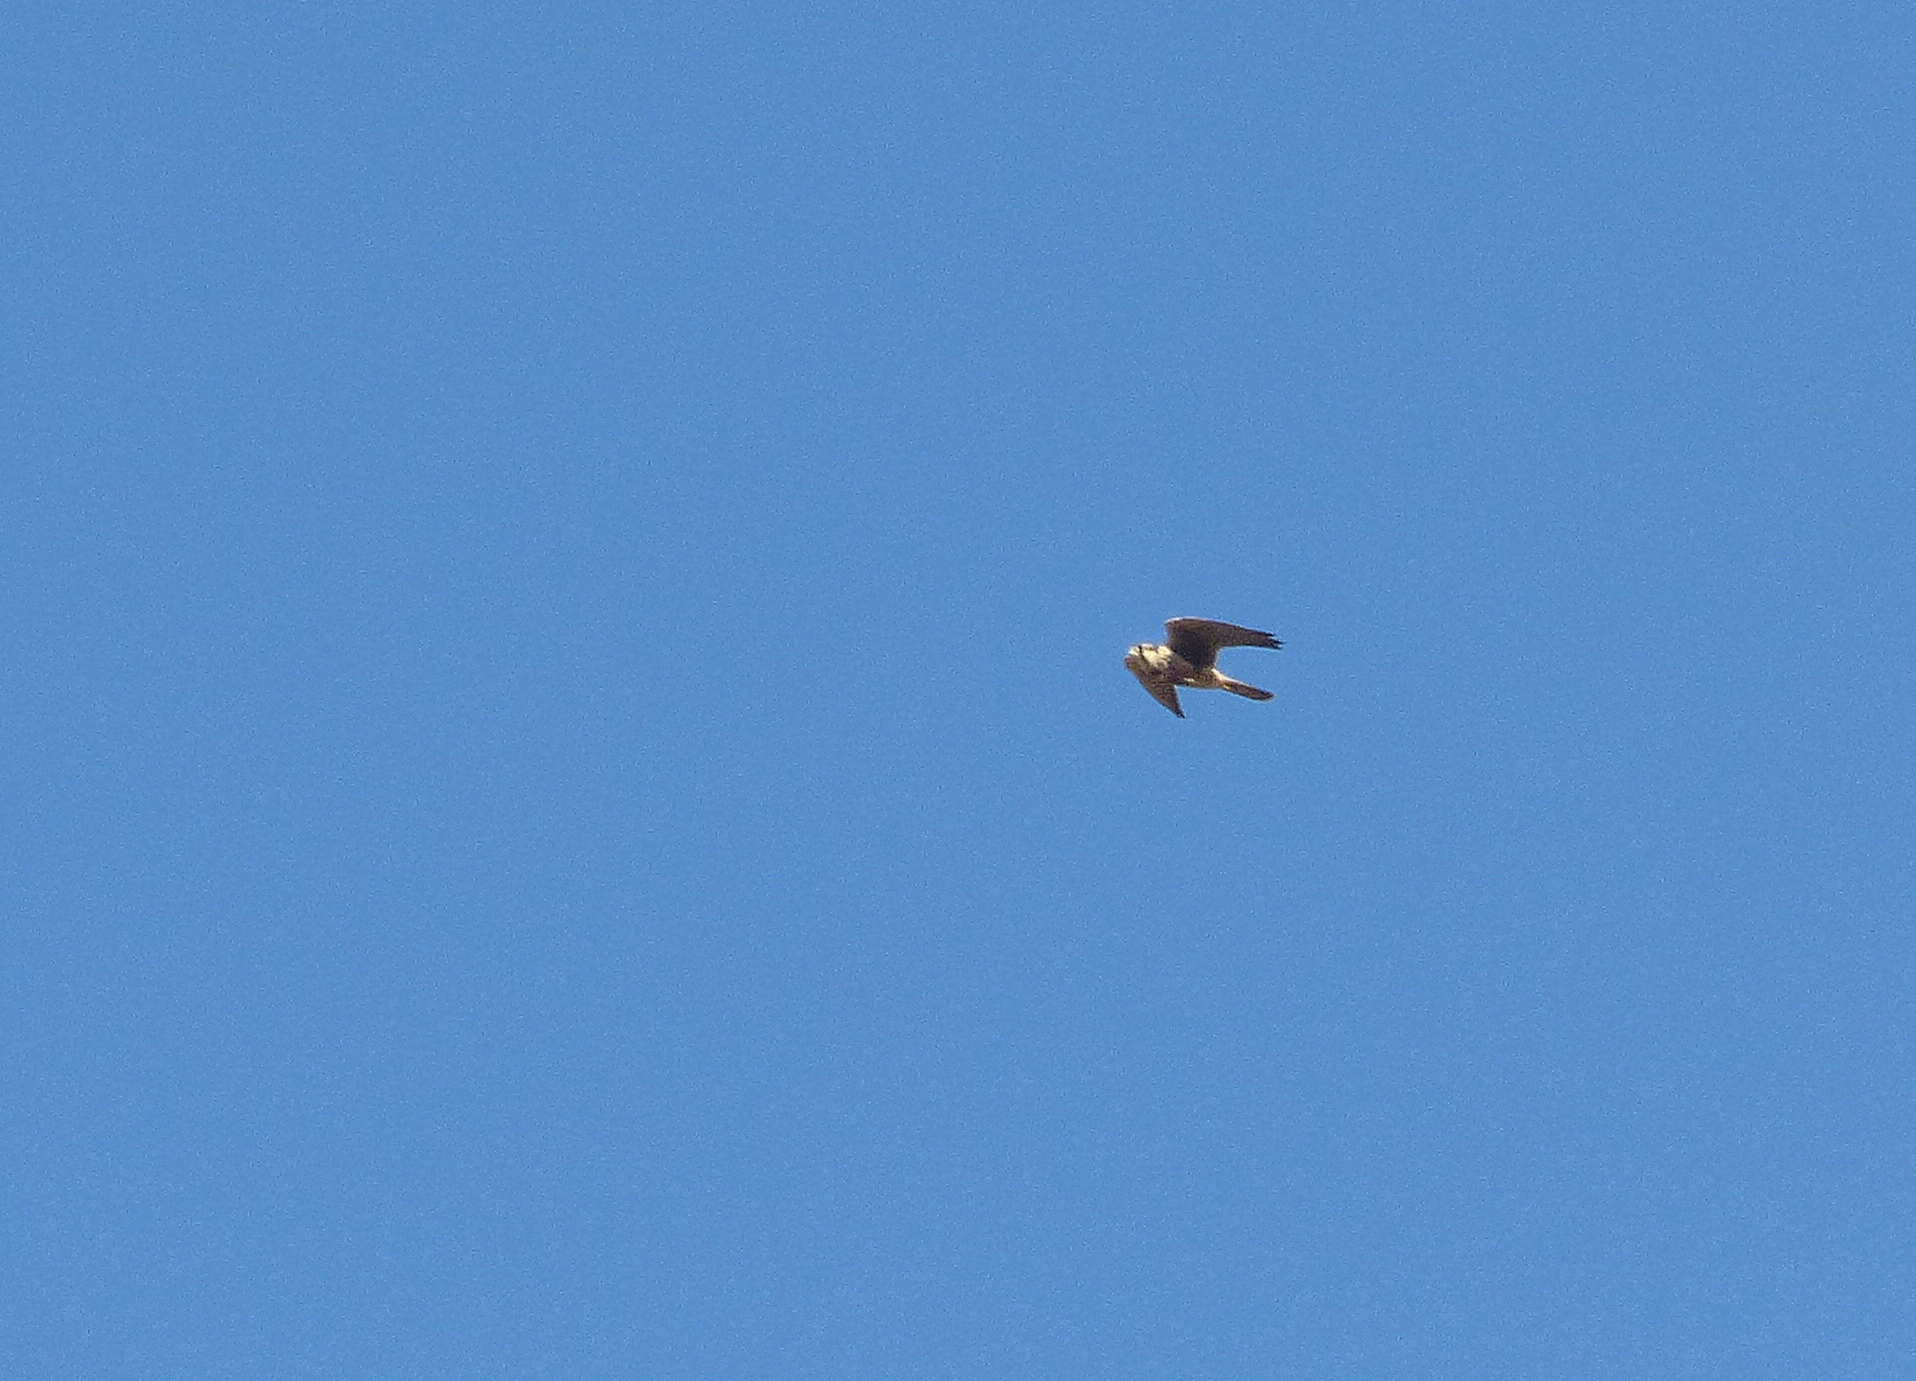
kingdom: Animalia
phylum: Chordata
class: Aves
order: Falconiformes
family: Falconidae
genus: Falco
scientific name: Falco femoralis
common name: Aplomado falcon
